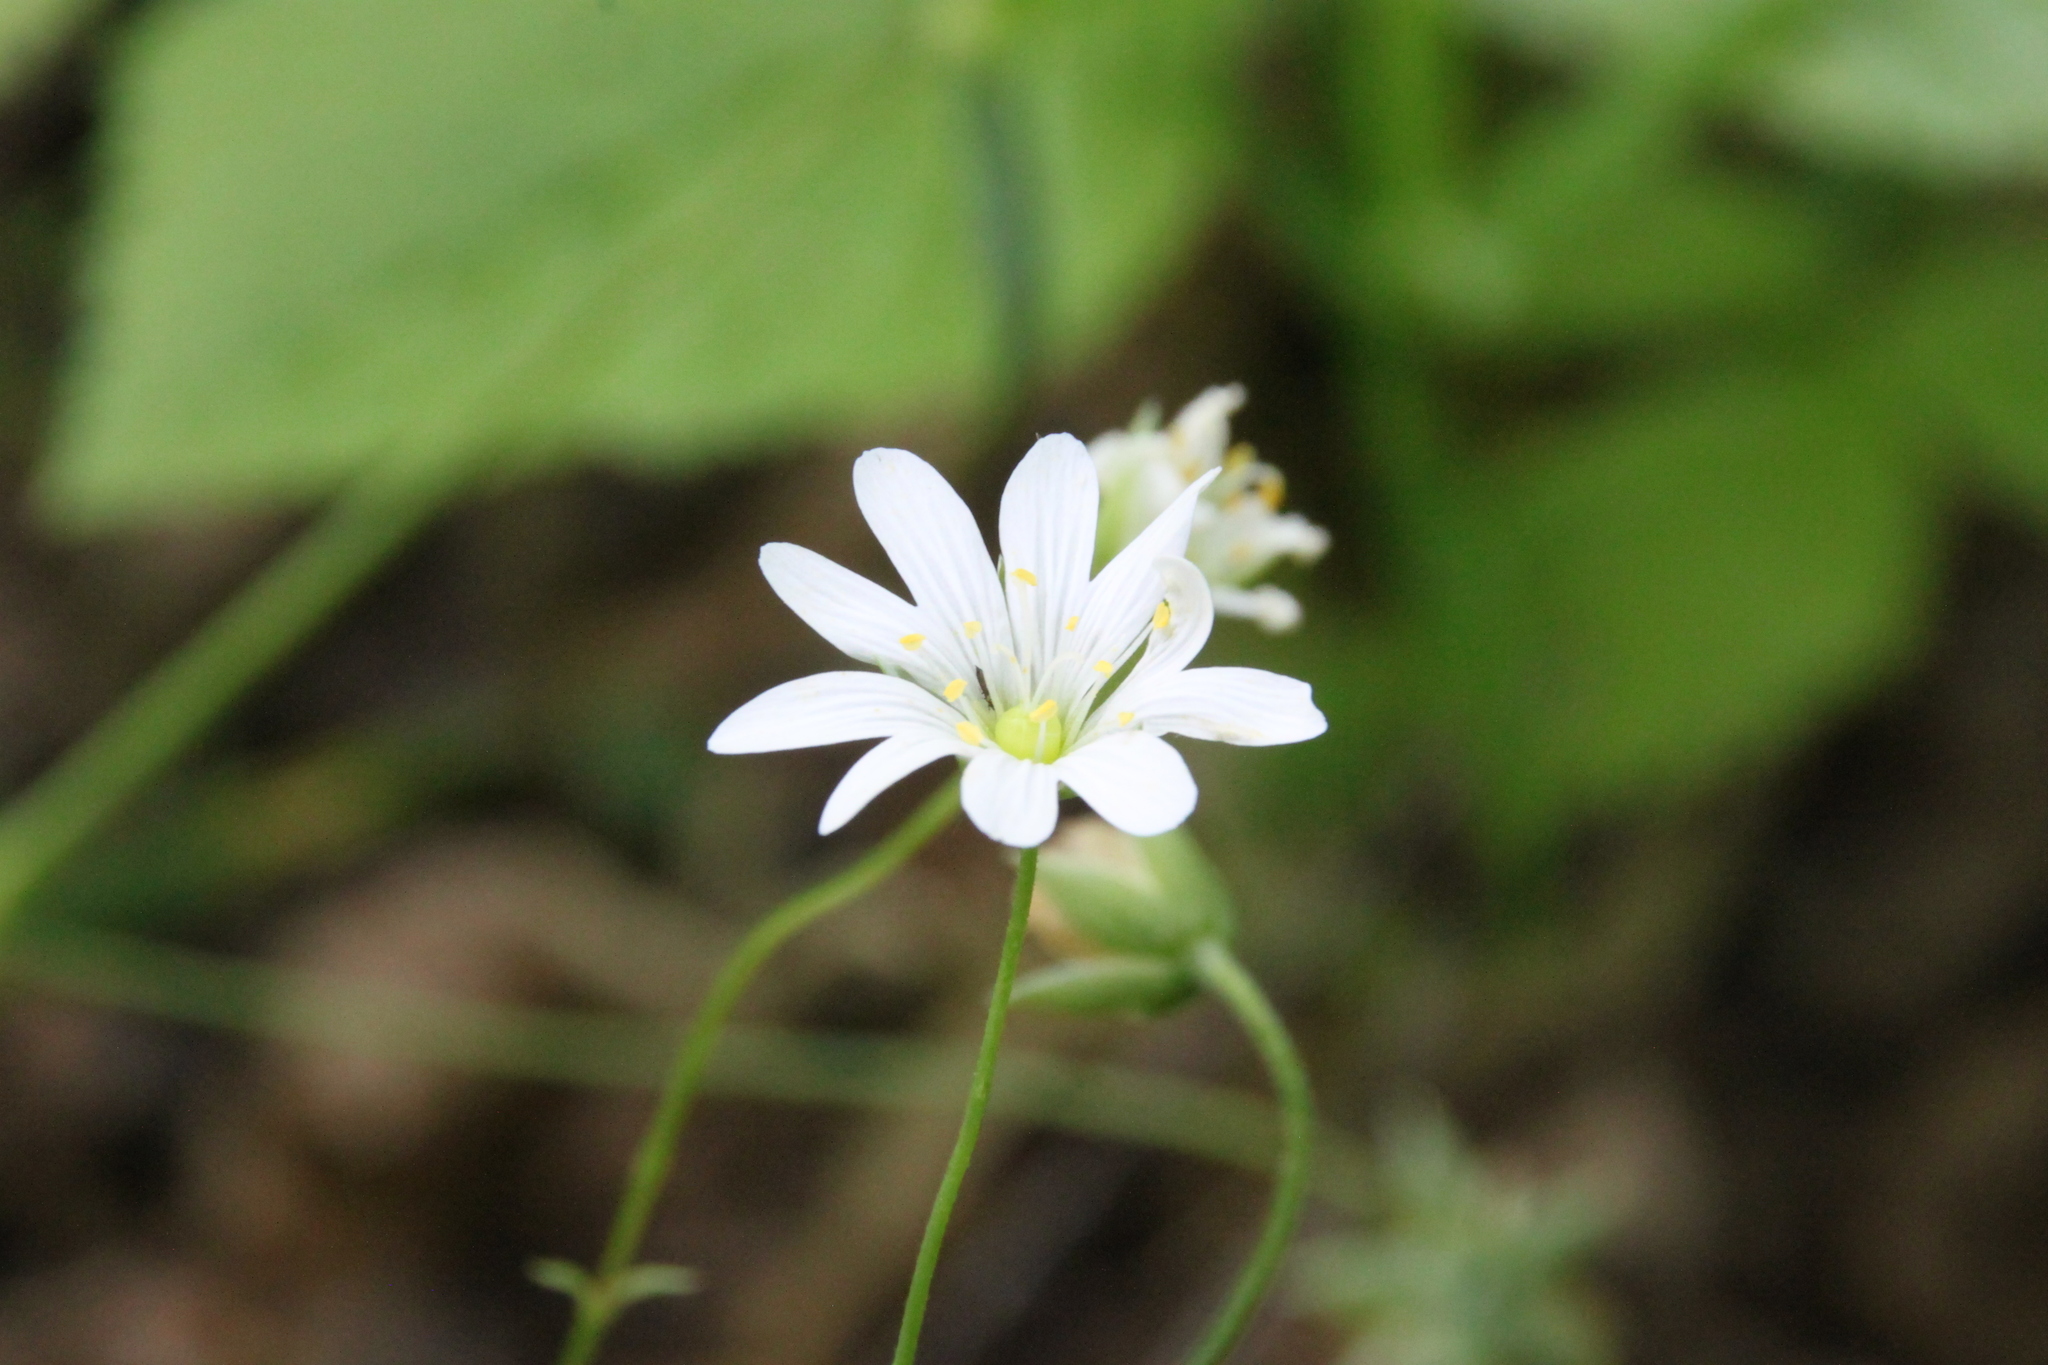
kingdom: Plantae
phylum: Tracheophyta
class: Magnoliopsida
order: Caryophyllales
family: Caryophyllaceae
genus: Rabelera
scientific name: Rabelera holostea
